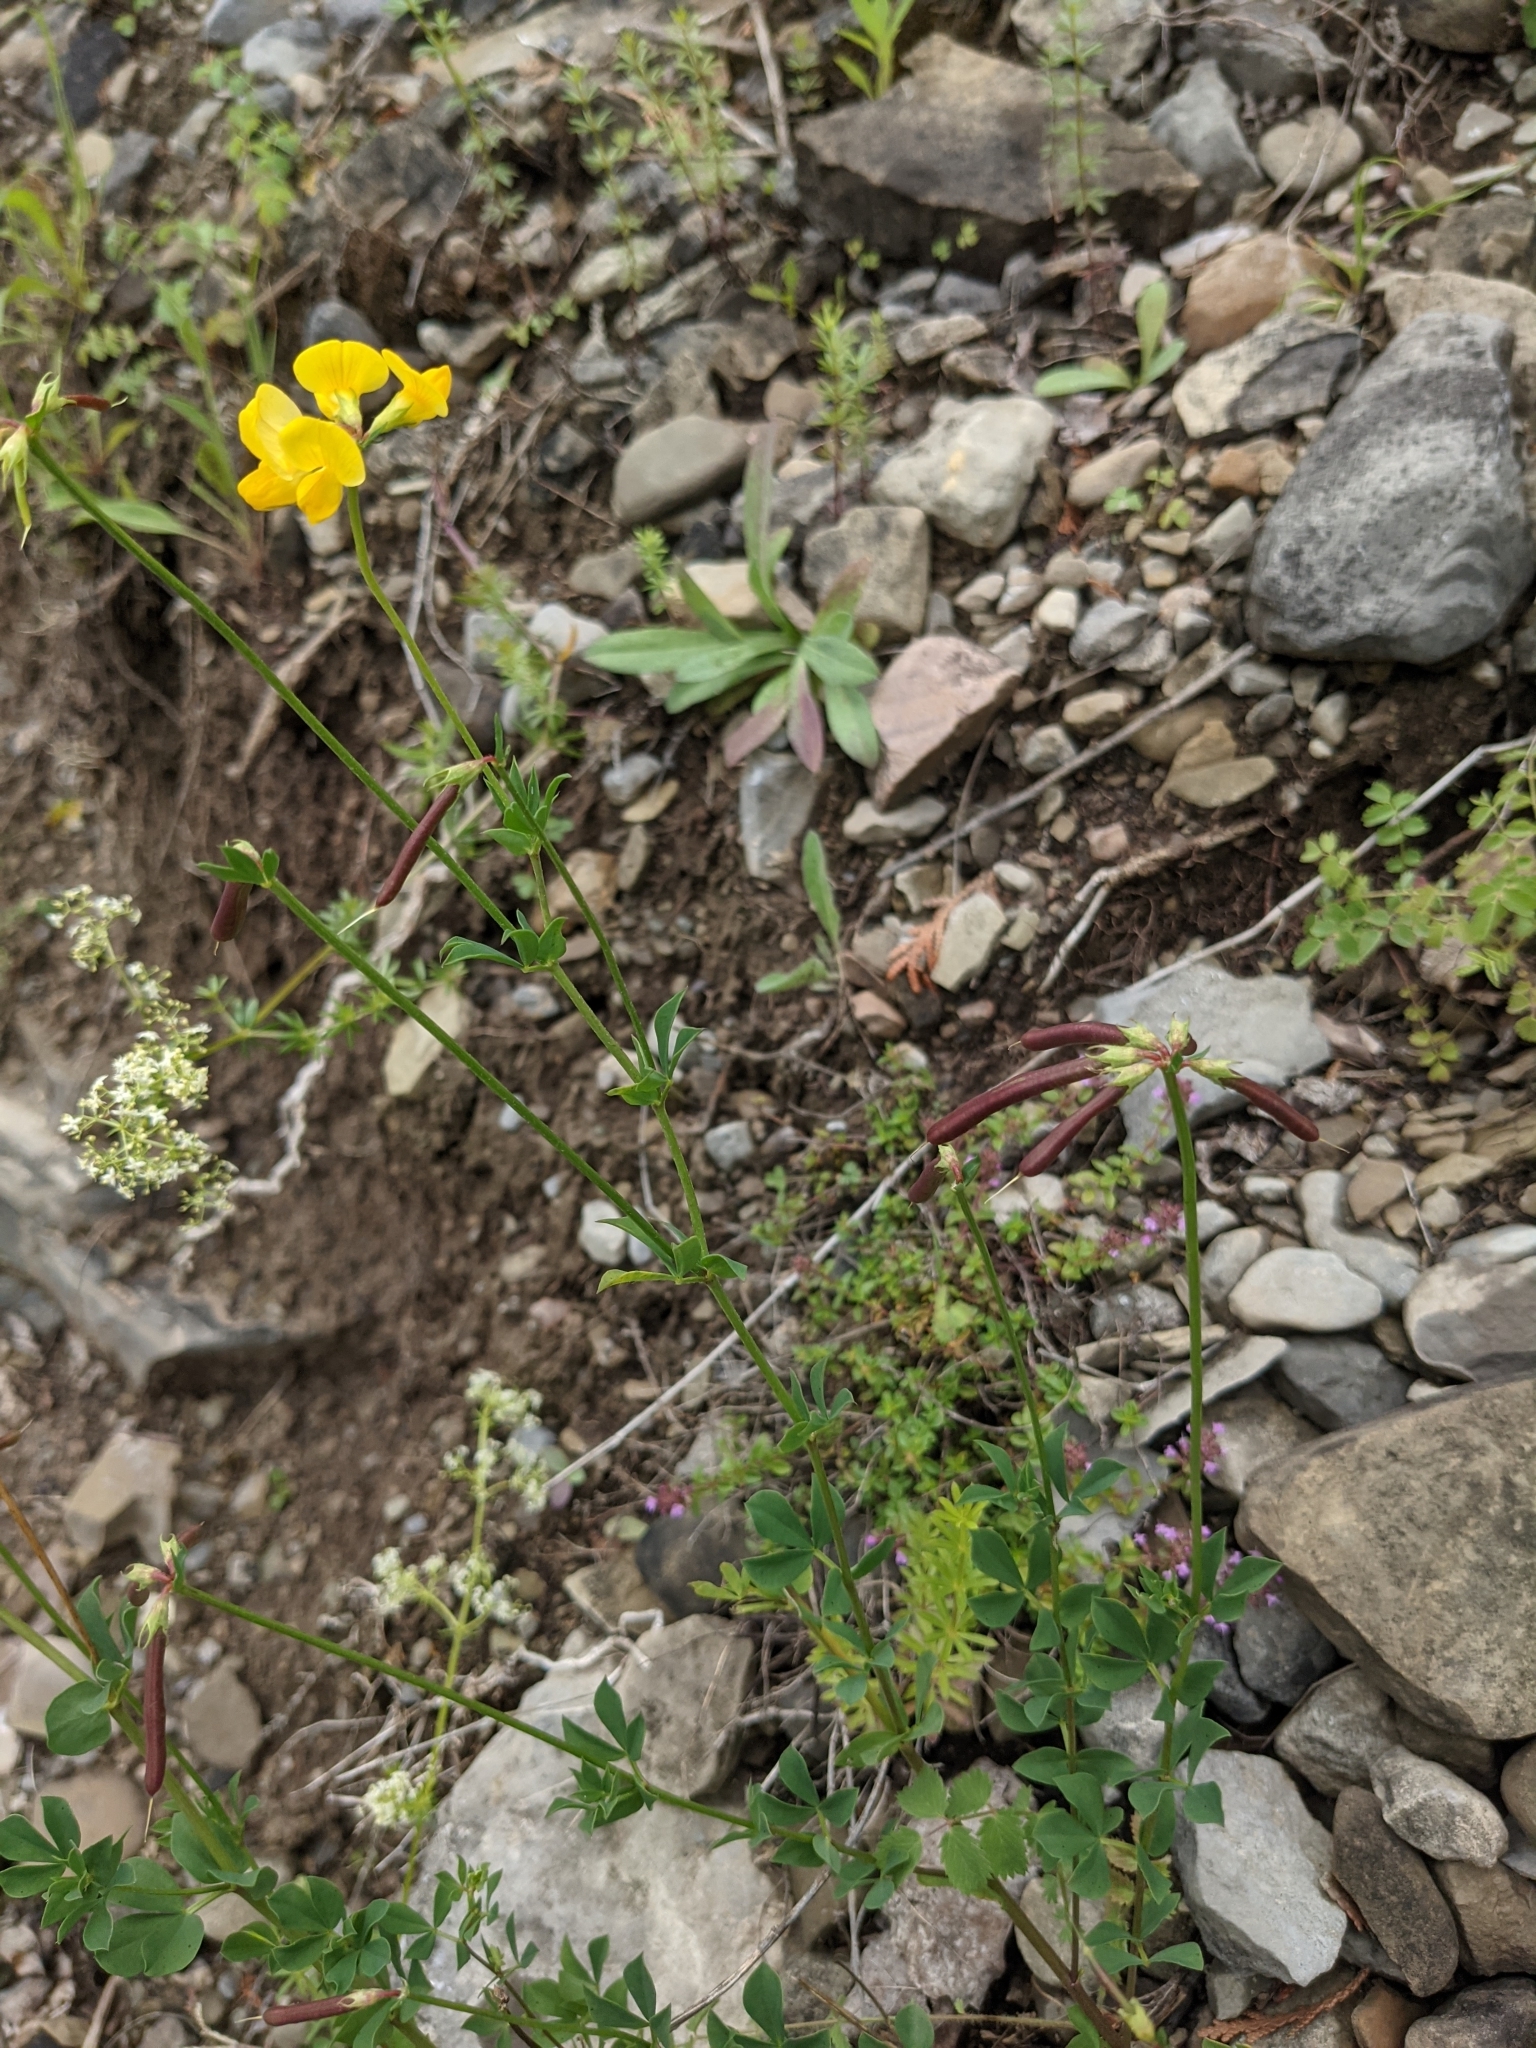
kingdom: Plantae
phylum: Tracheophyta
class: Magnoliopsida
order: Fabales
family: Fabaceae
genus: Lotus
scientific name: Lotus corniculatus
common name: Common bird's-foot-trefoil
